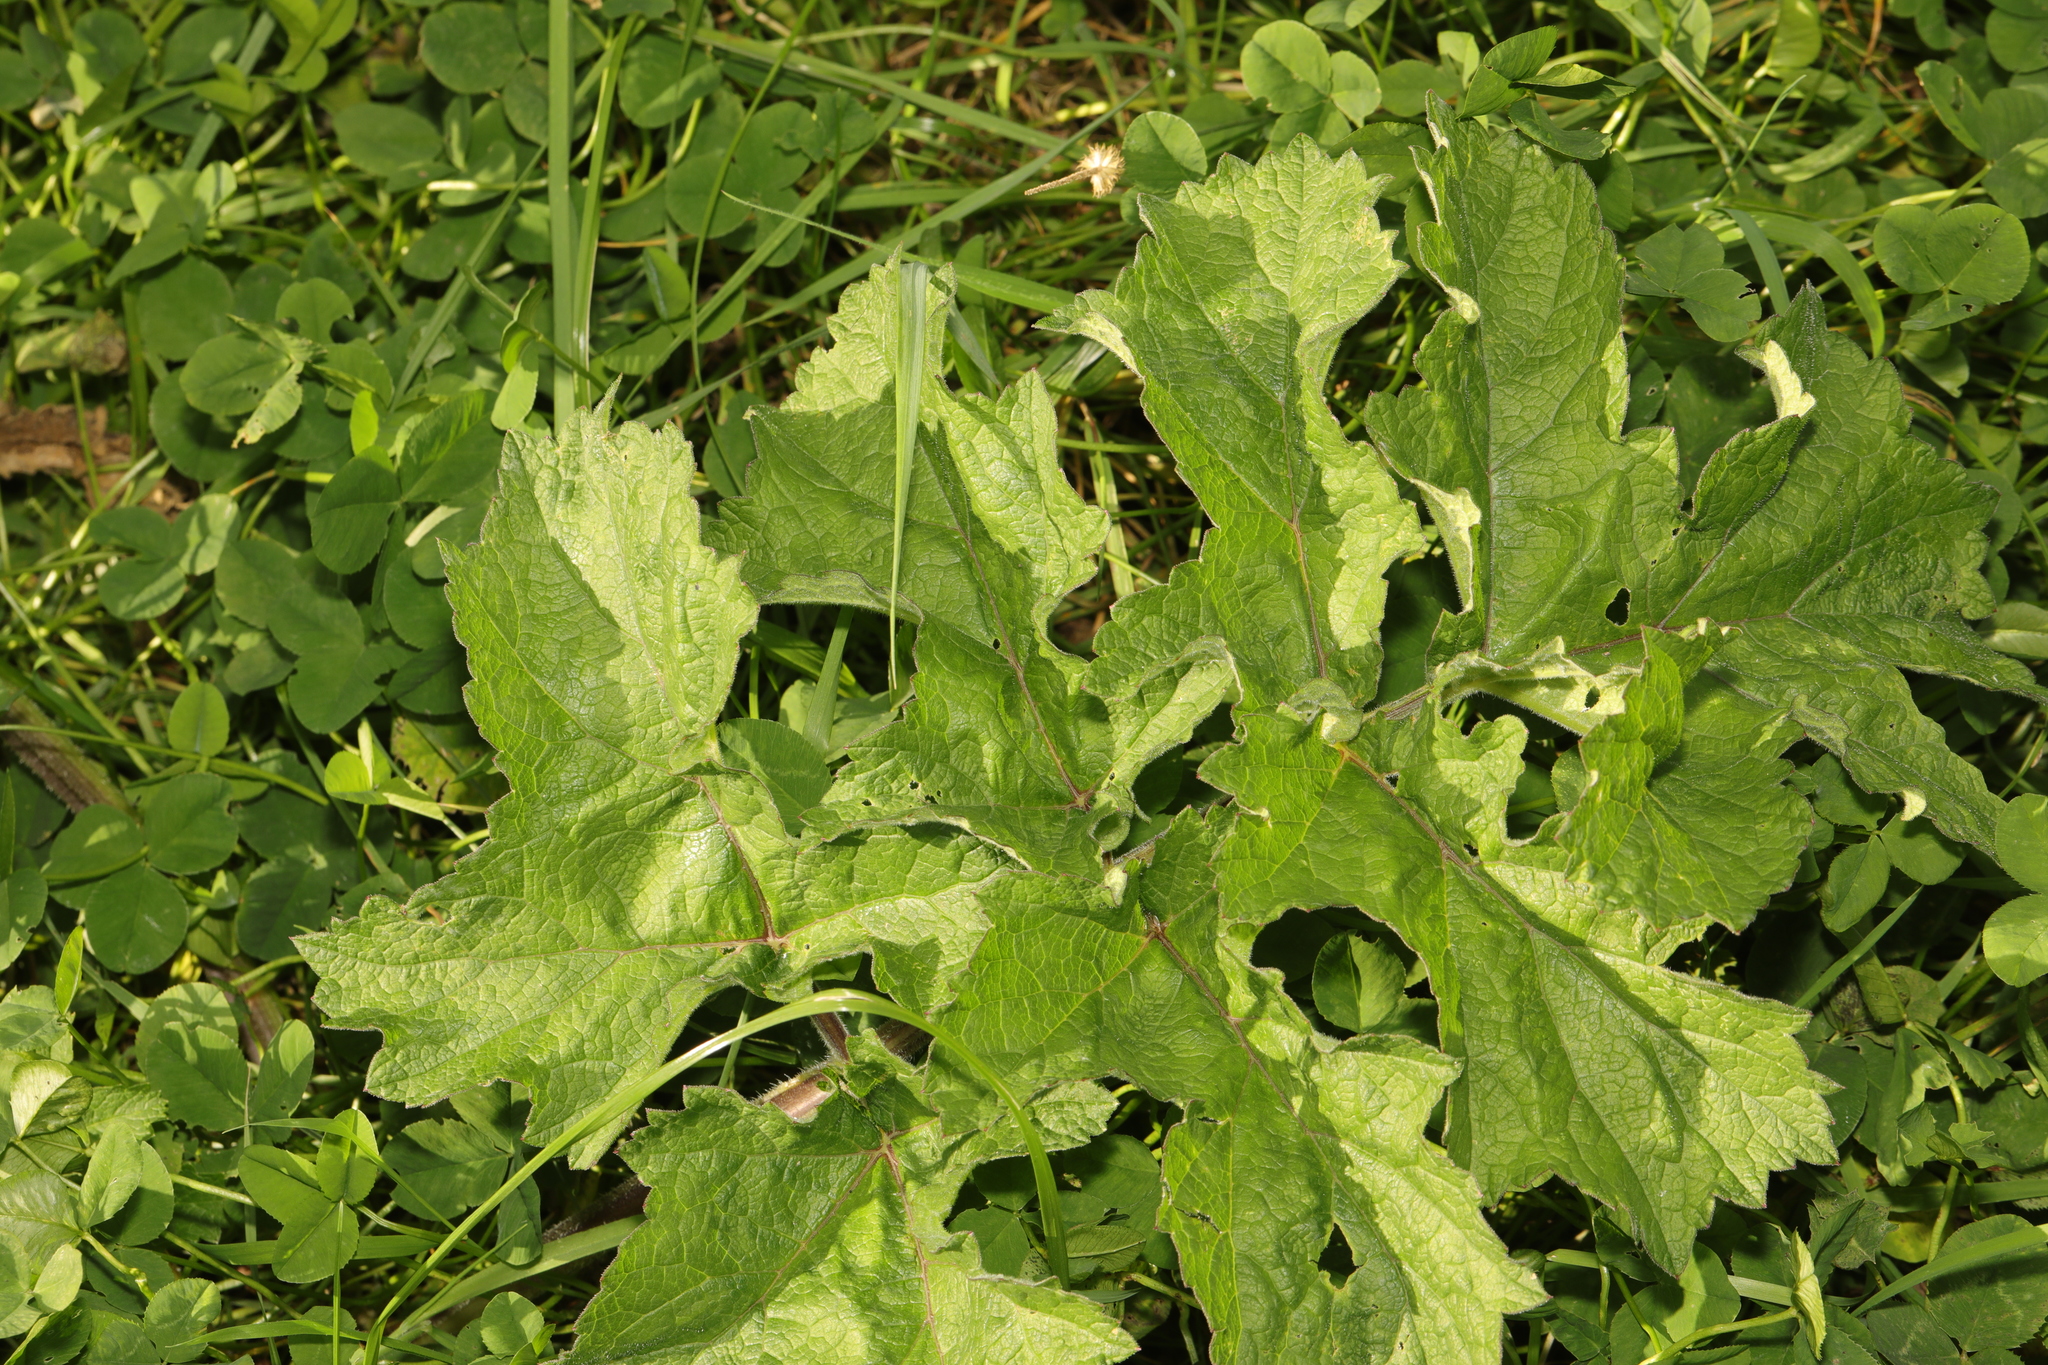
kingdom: Plantae
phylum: Tracheophyta
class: Magnoliopsida
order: Apiales
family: Apiaceae
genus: Heracleum
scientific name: Heracleum sphondylium
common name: Hogweed
